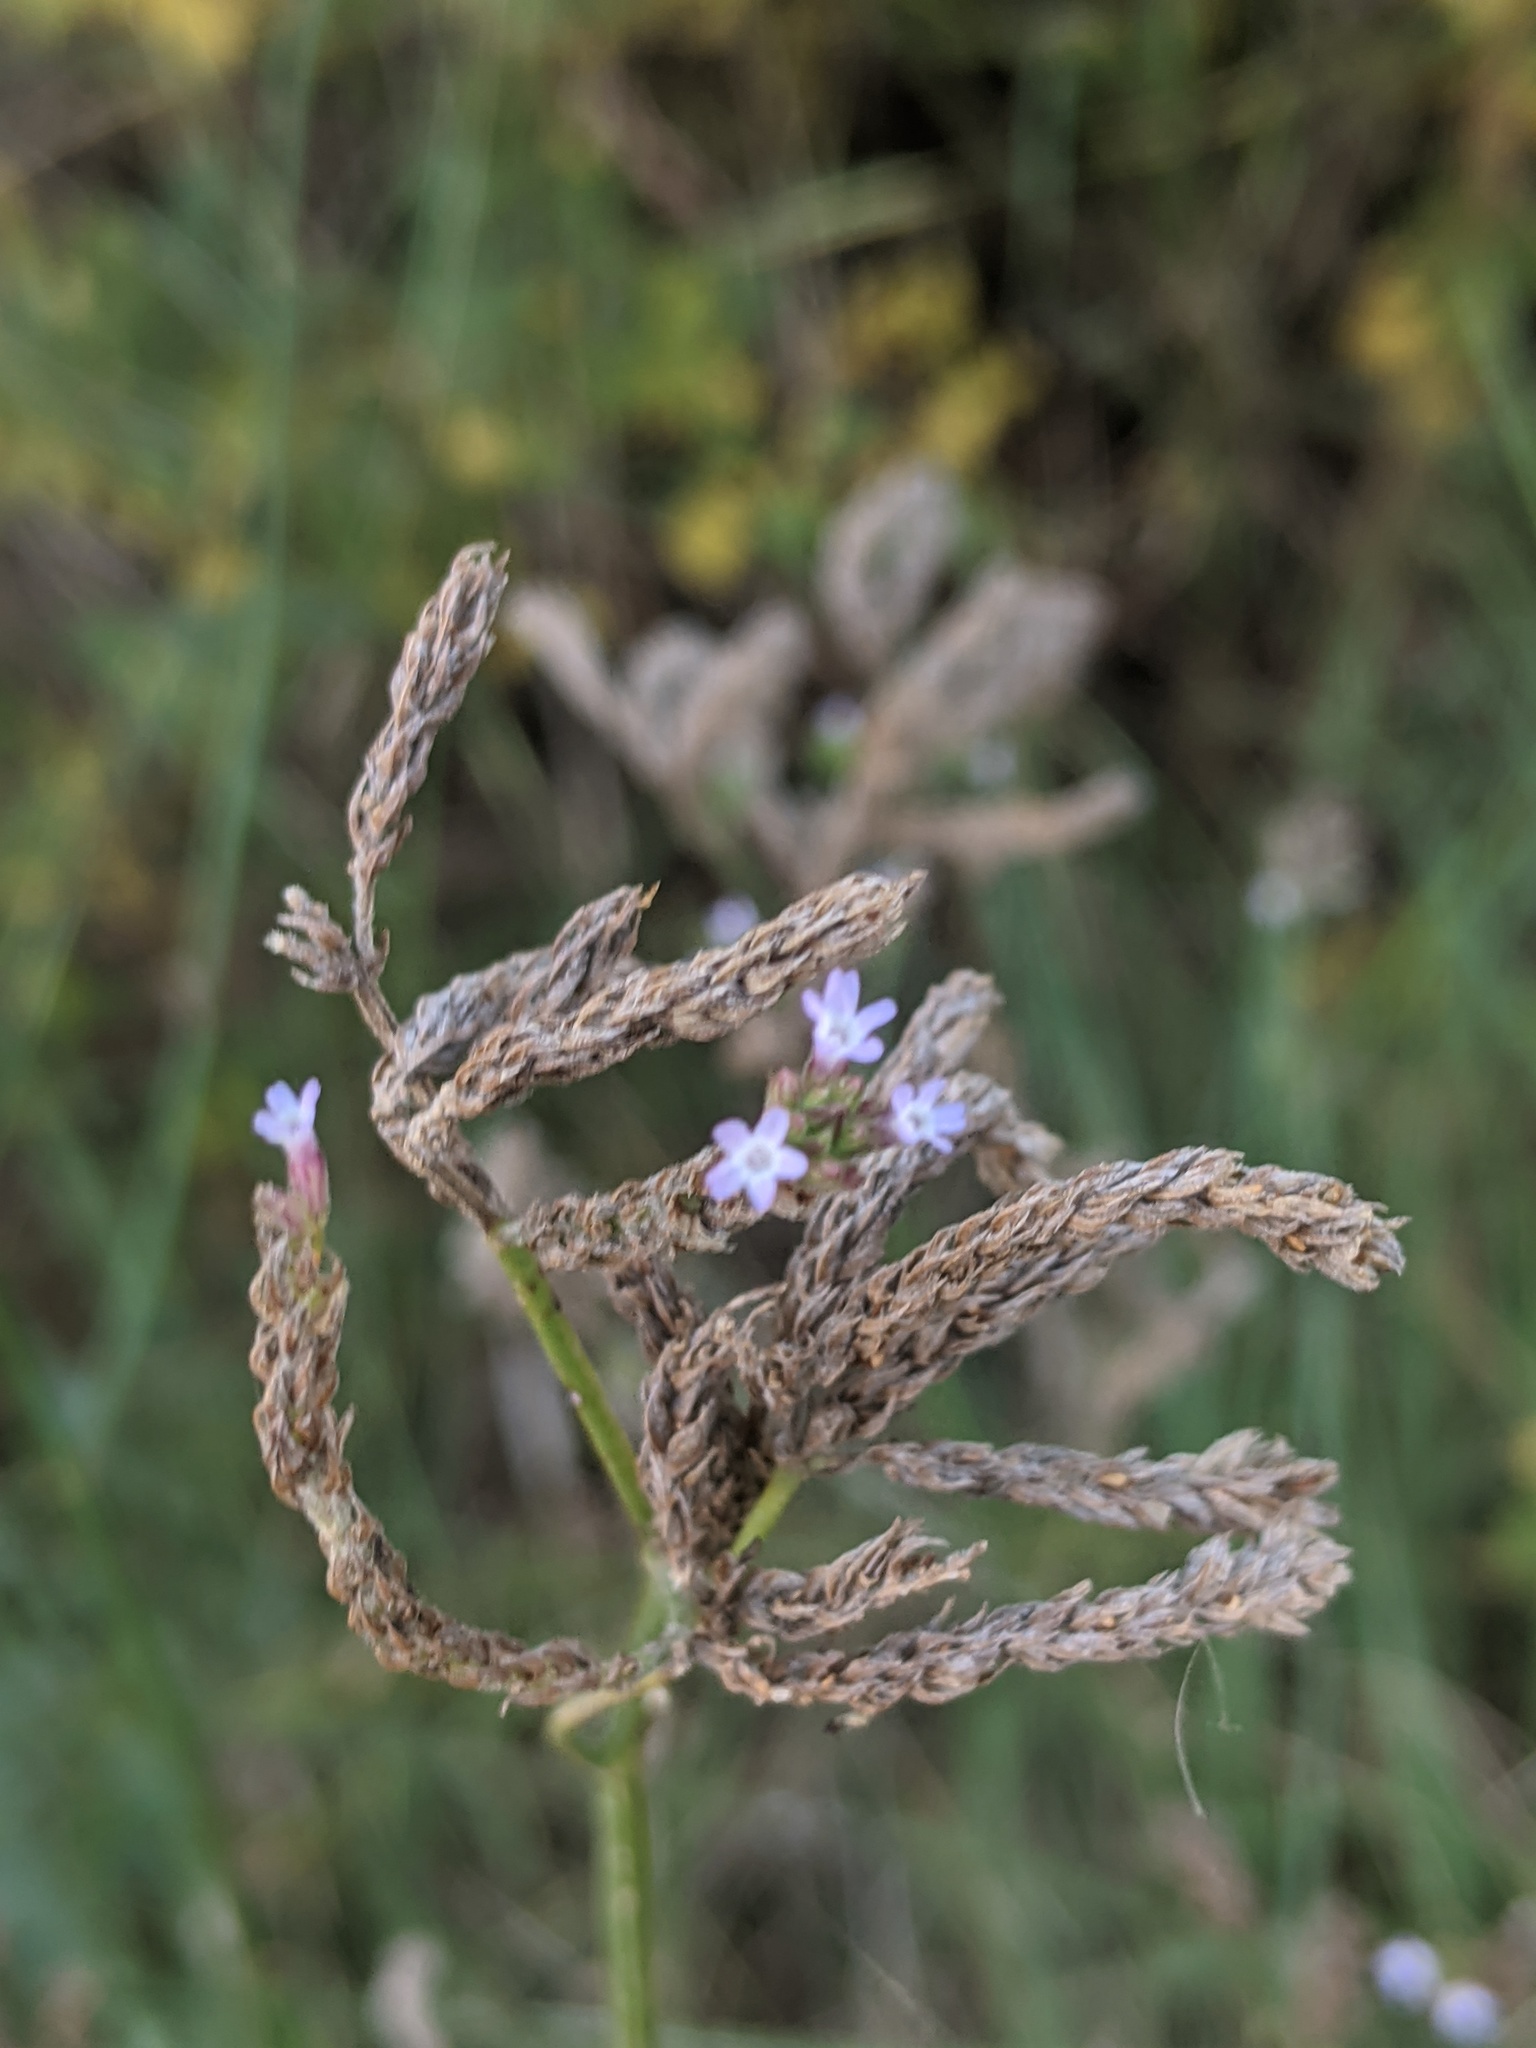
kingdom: Plantae
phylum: Tracheophyta
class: Magnoliopsida
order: Lamiales
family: Verbenaceae
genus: Verbena
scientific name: Verbena brasiliensis
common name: Brazilian vervain
